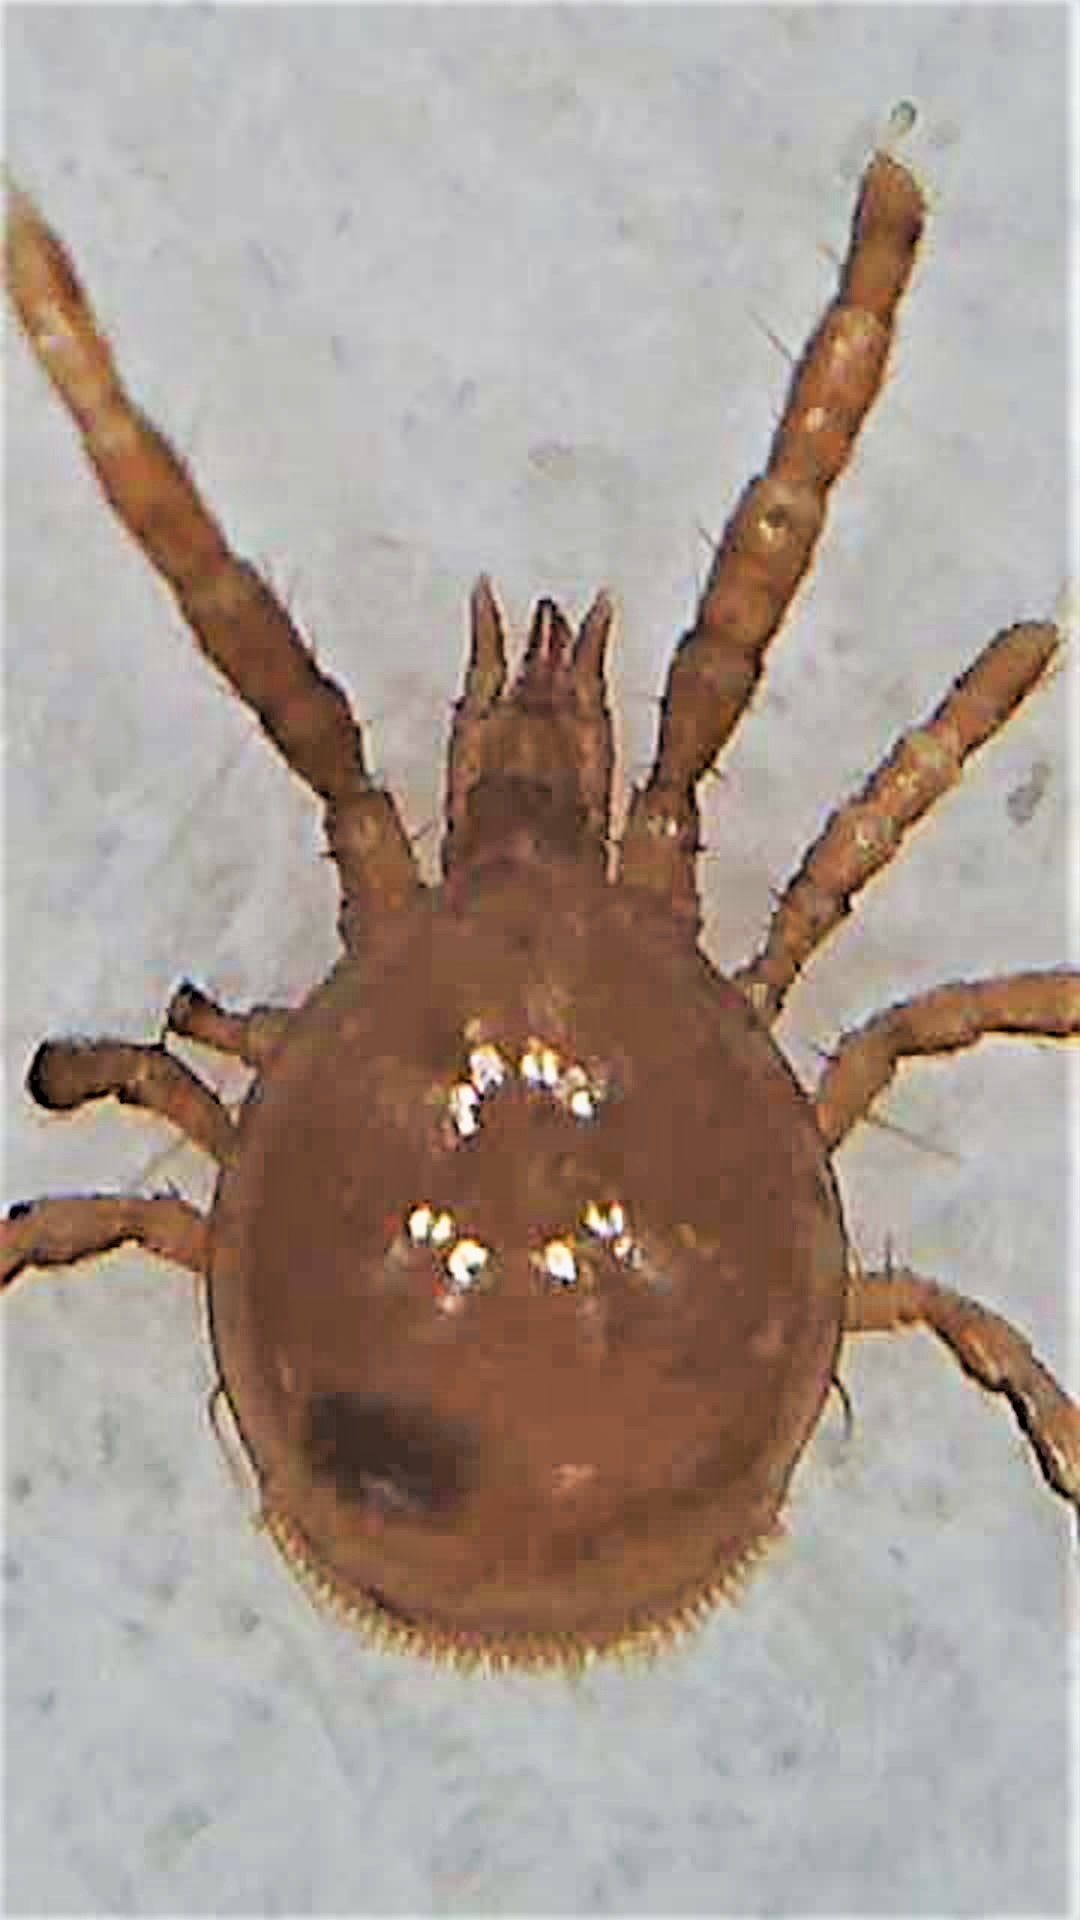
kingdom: Animalia
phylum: Arthropoda
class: Arachnida
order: Mesostigmata
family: Discozerconidae
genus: Berzercon
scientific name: Berzercon ferdinandi
